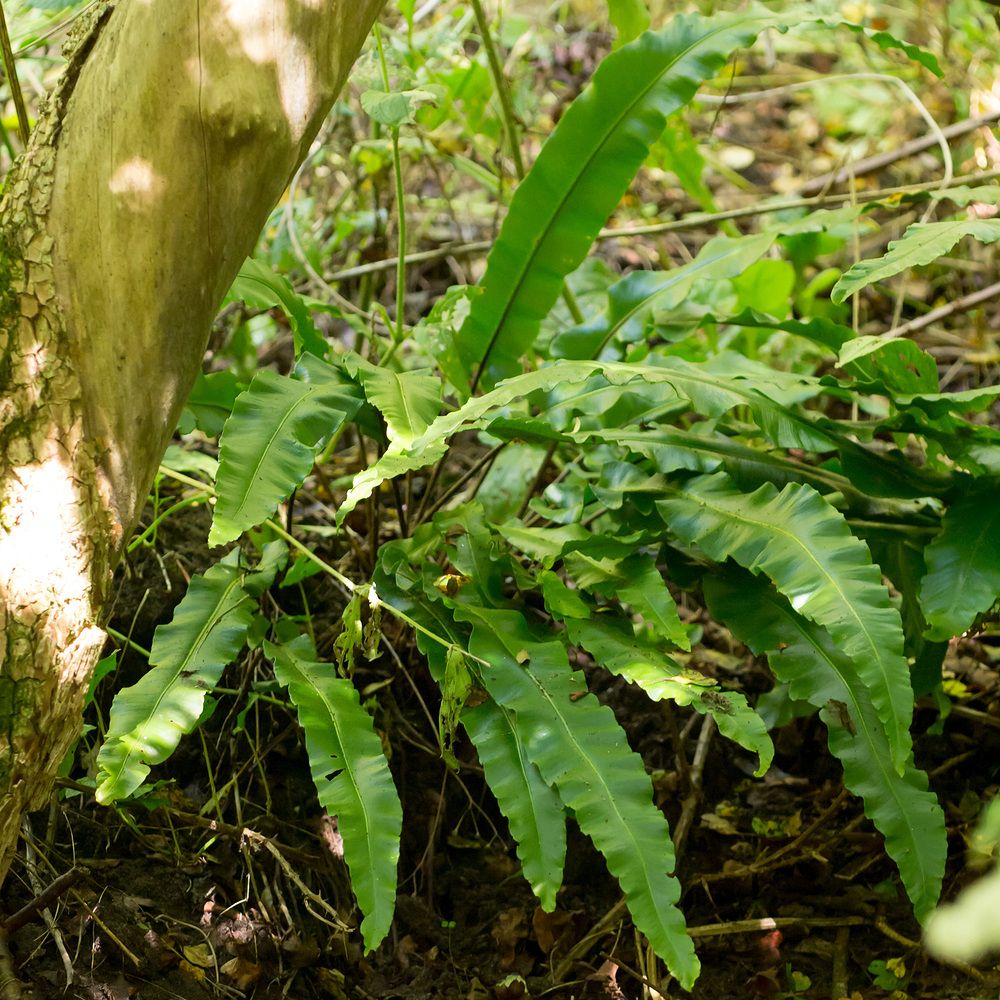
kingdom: Plantae
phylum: Tracheophyta
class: Polypodiopsida
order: Polypodiales
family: Aspleniaceae
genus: Asplenium
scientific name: Asplenium scolopendrium
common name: Hart's-tongue fern
